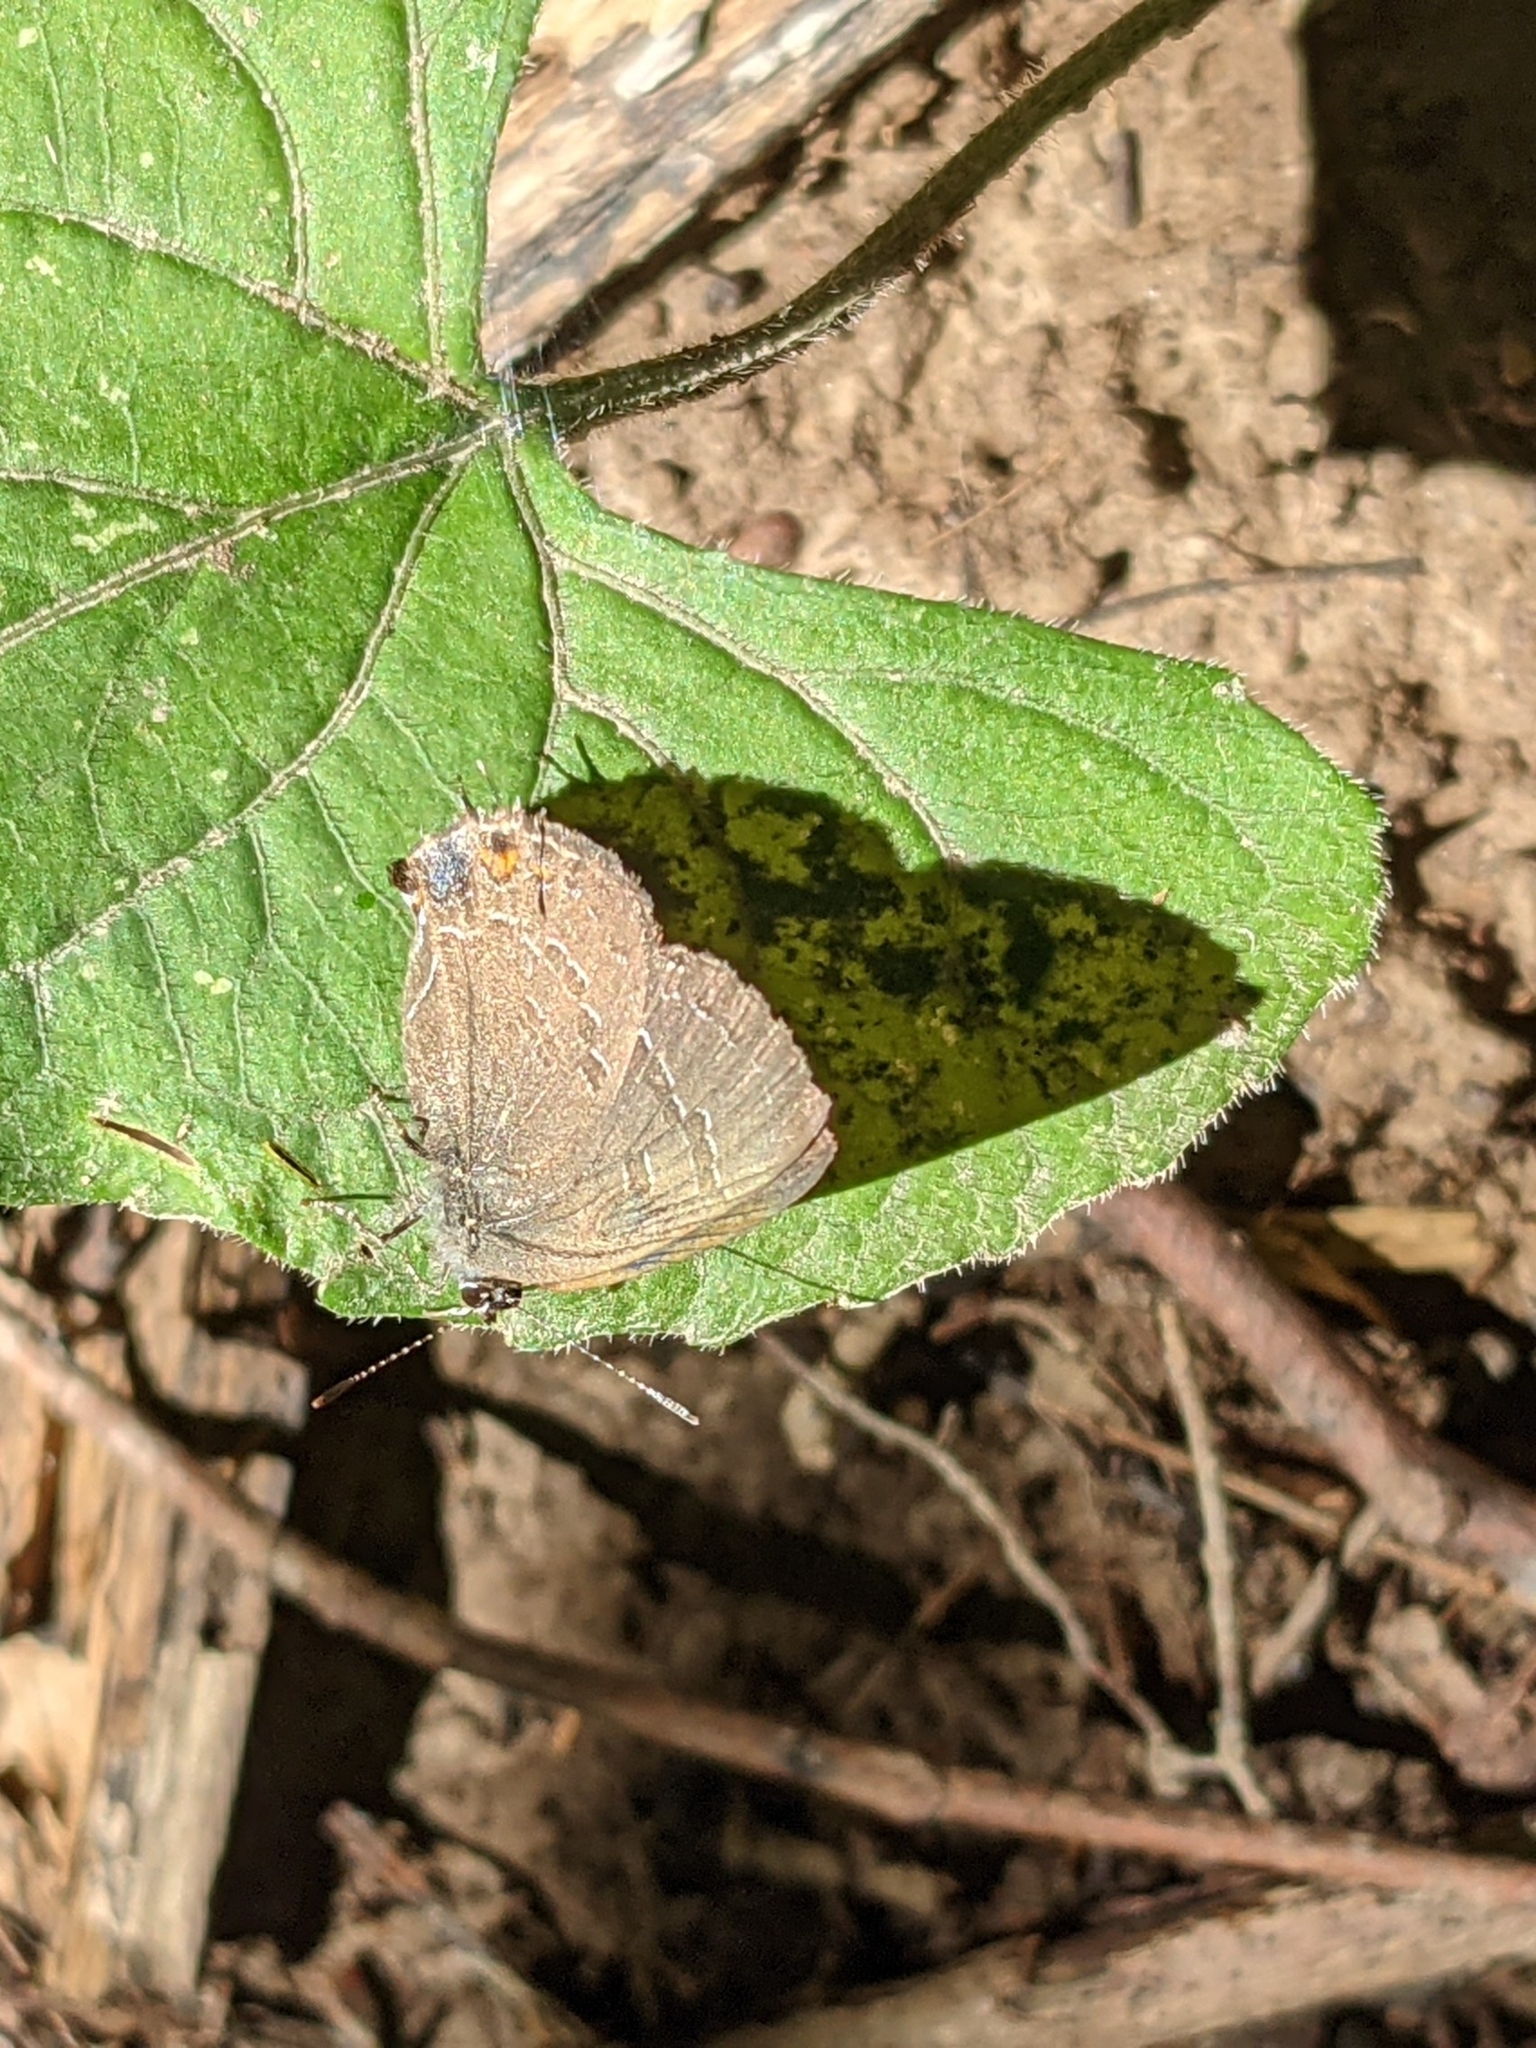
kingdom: Animalia
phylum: Arthropoda
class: Insecta
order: Lepidoptera
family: Lycaenidae
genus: Satyrium
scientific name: Satyrium calanus
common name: Banded hairstreak
